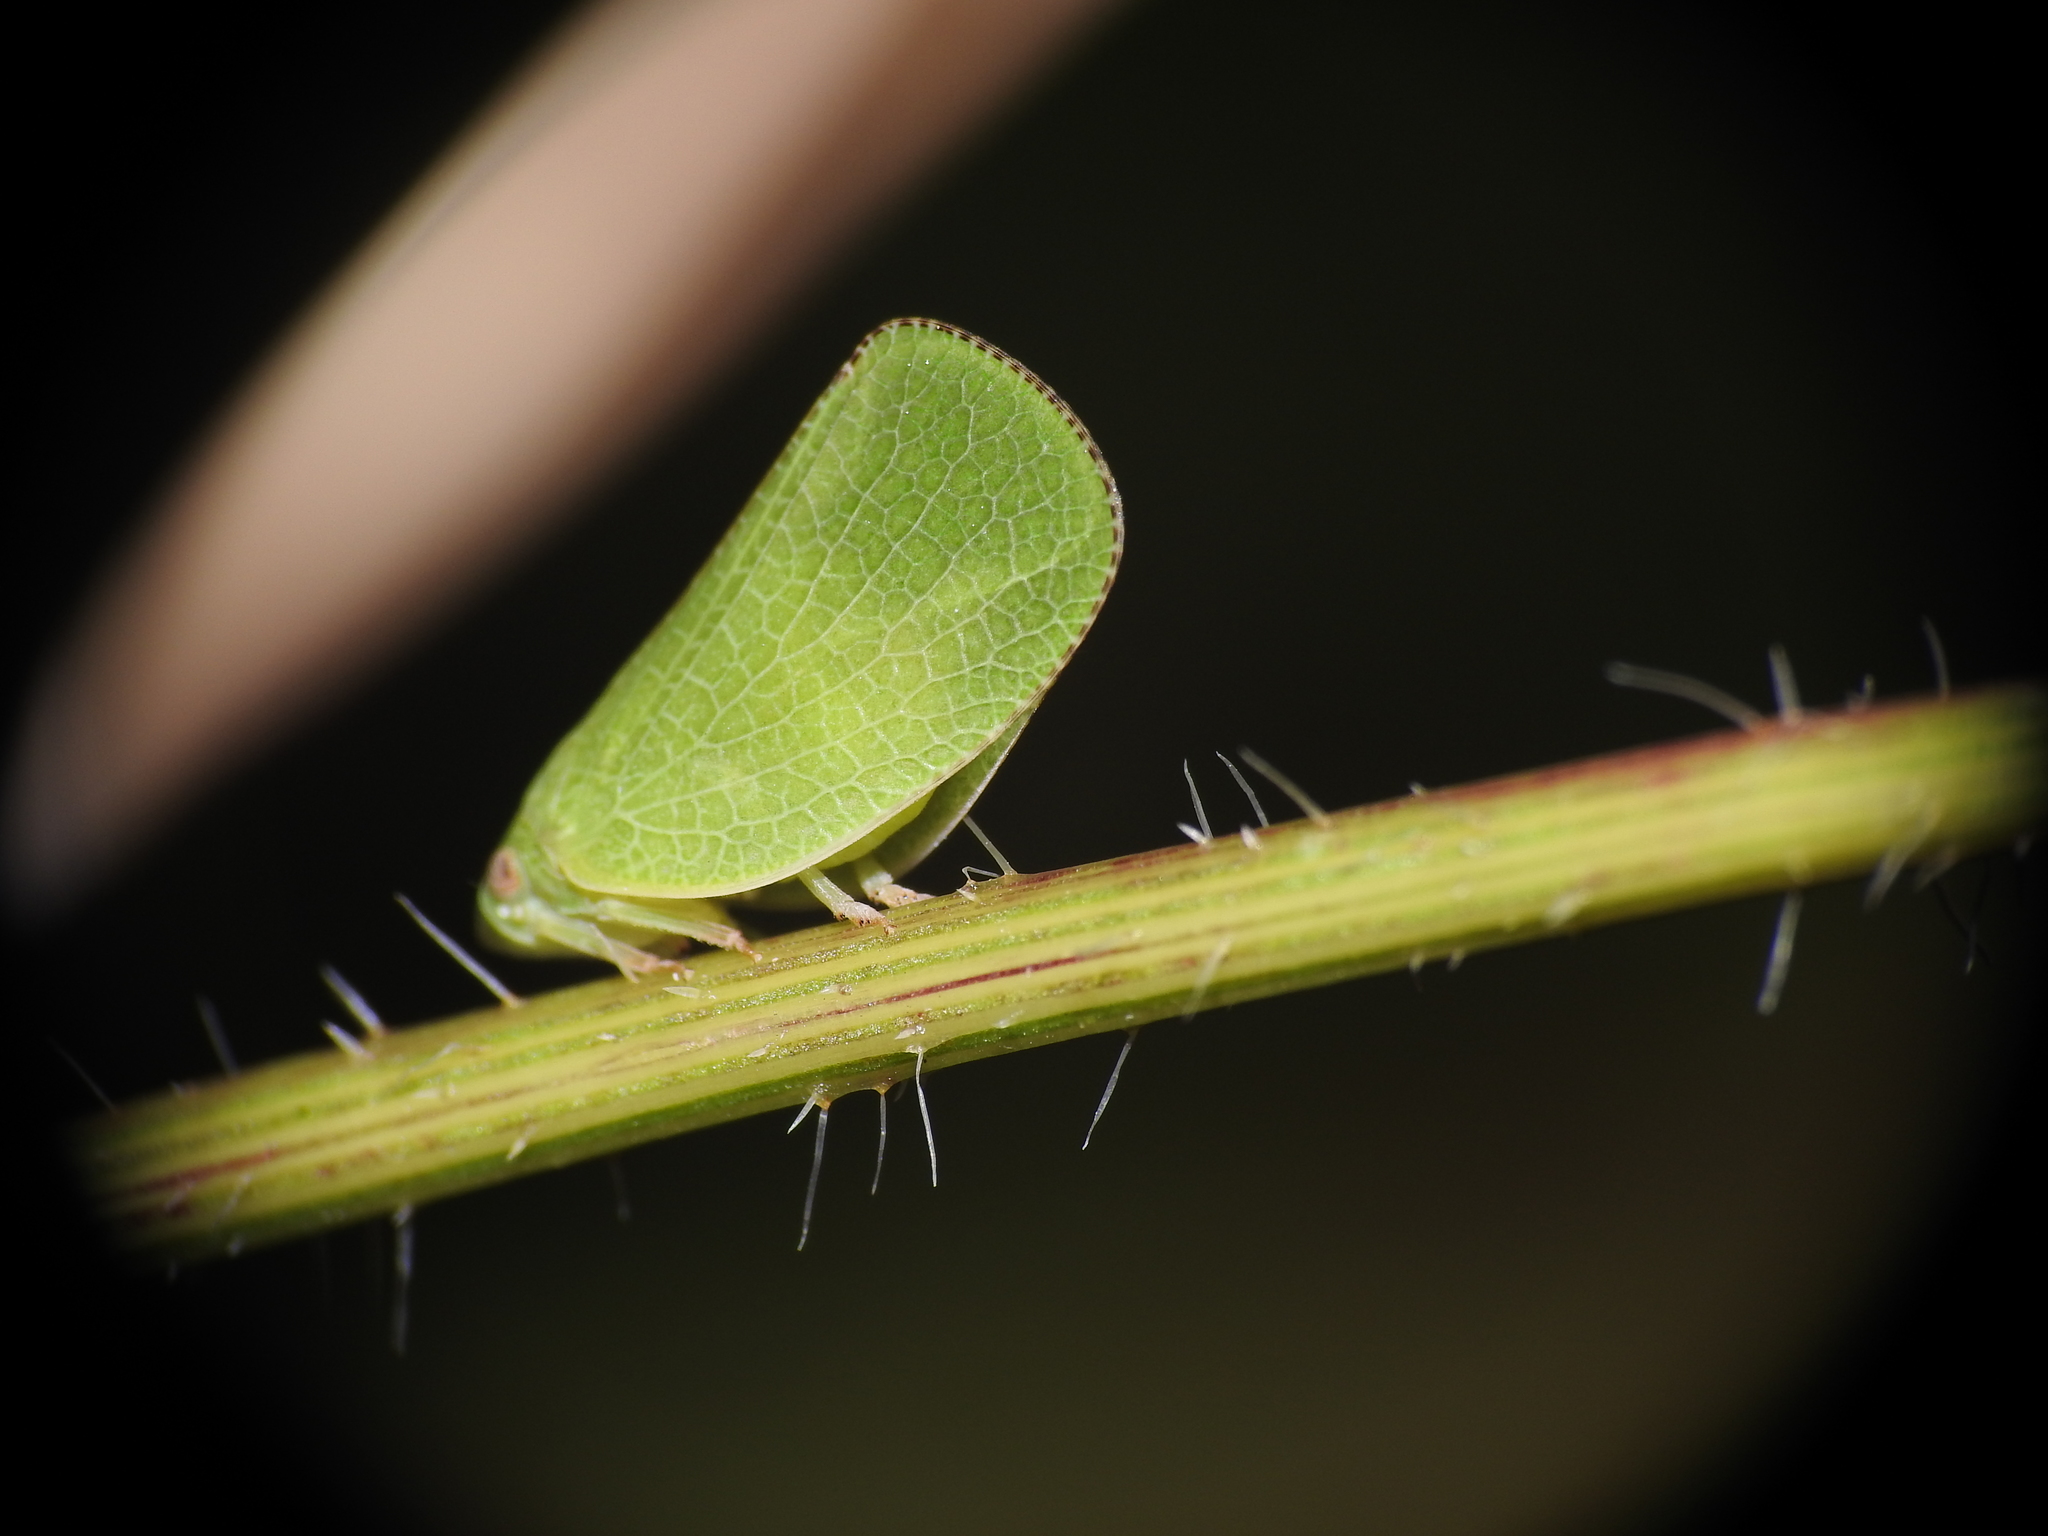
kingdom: Animalia
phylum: Arthropoda
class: Insecta
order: Hemiptera
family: Acanaloniidae
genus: Acanalonia
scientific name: Acanalonia conica
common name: Green cone-headed planthopper
